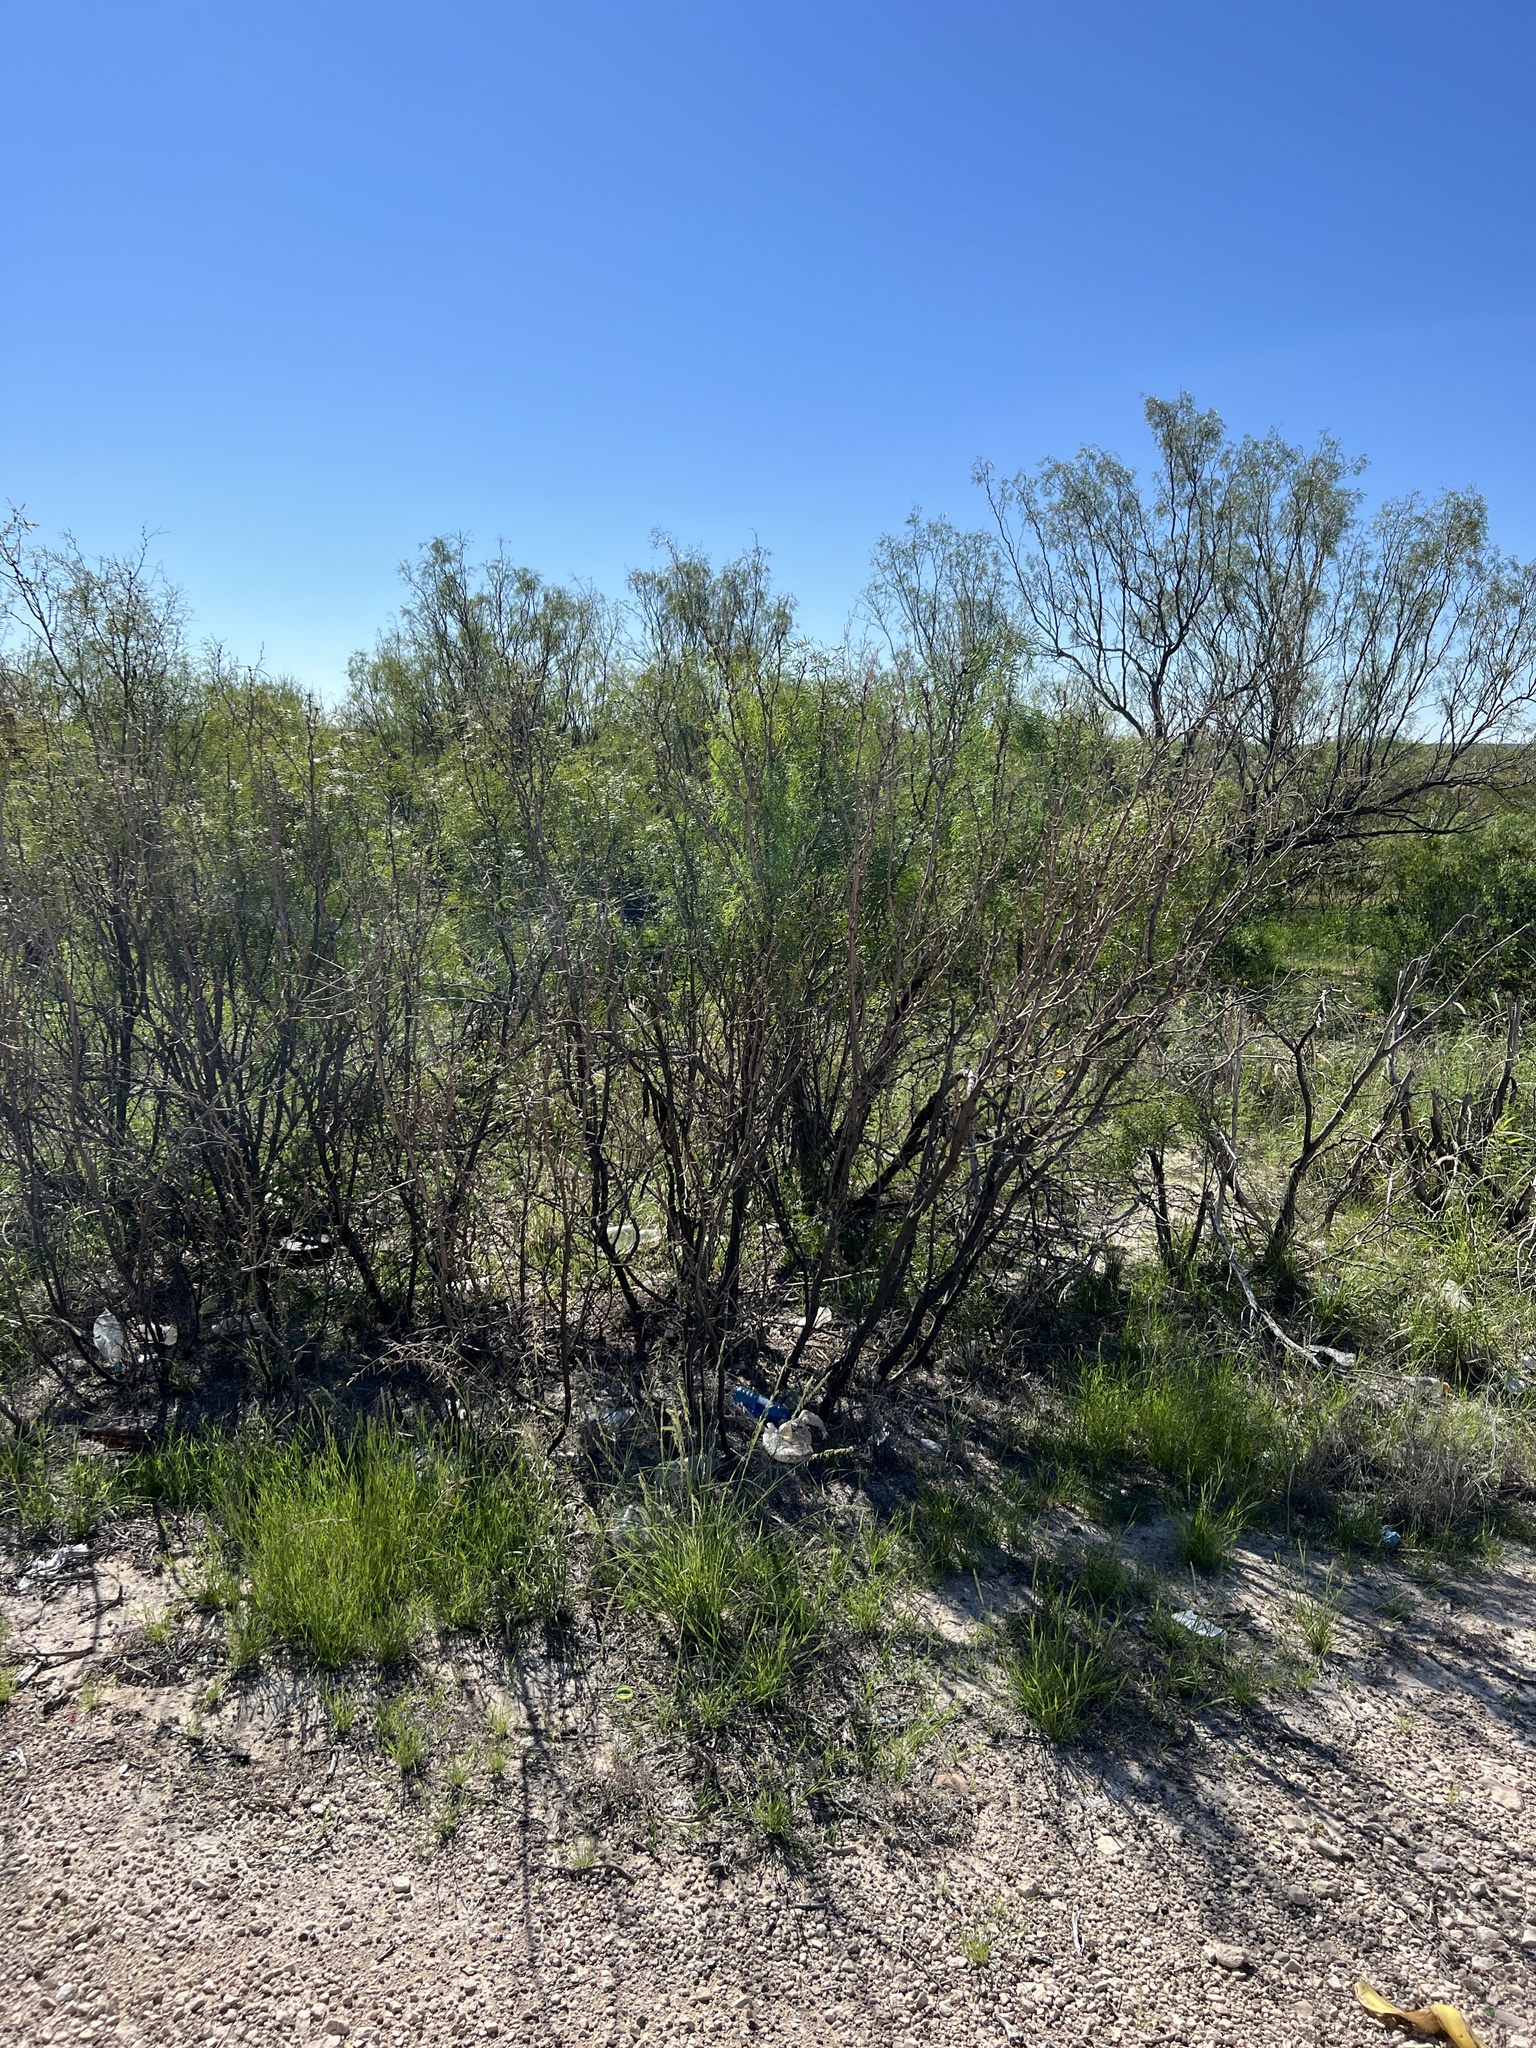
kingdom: Plantae
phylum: Tracheophyta
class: Magnoliopsida
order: Fabales
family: Fabaceae
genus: Prosopis
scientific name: Prosopis glandulosa
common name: Honey mesquite
